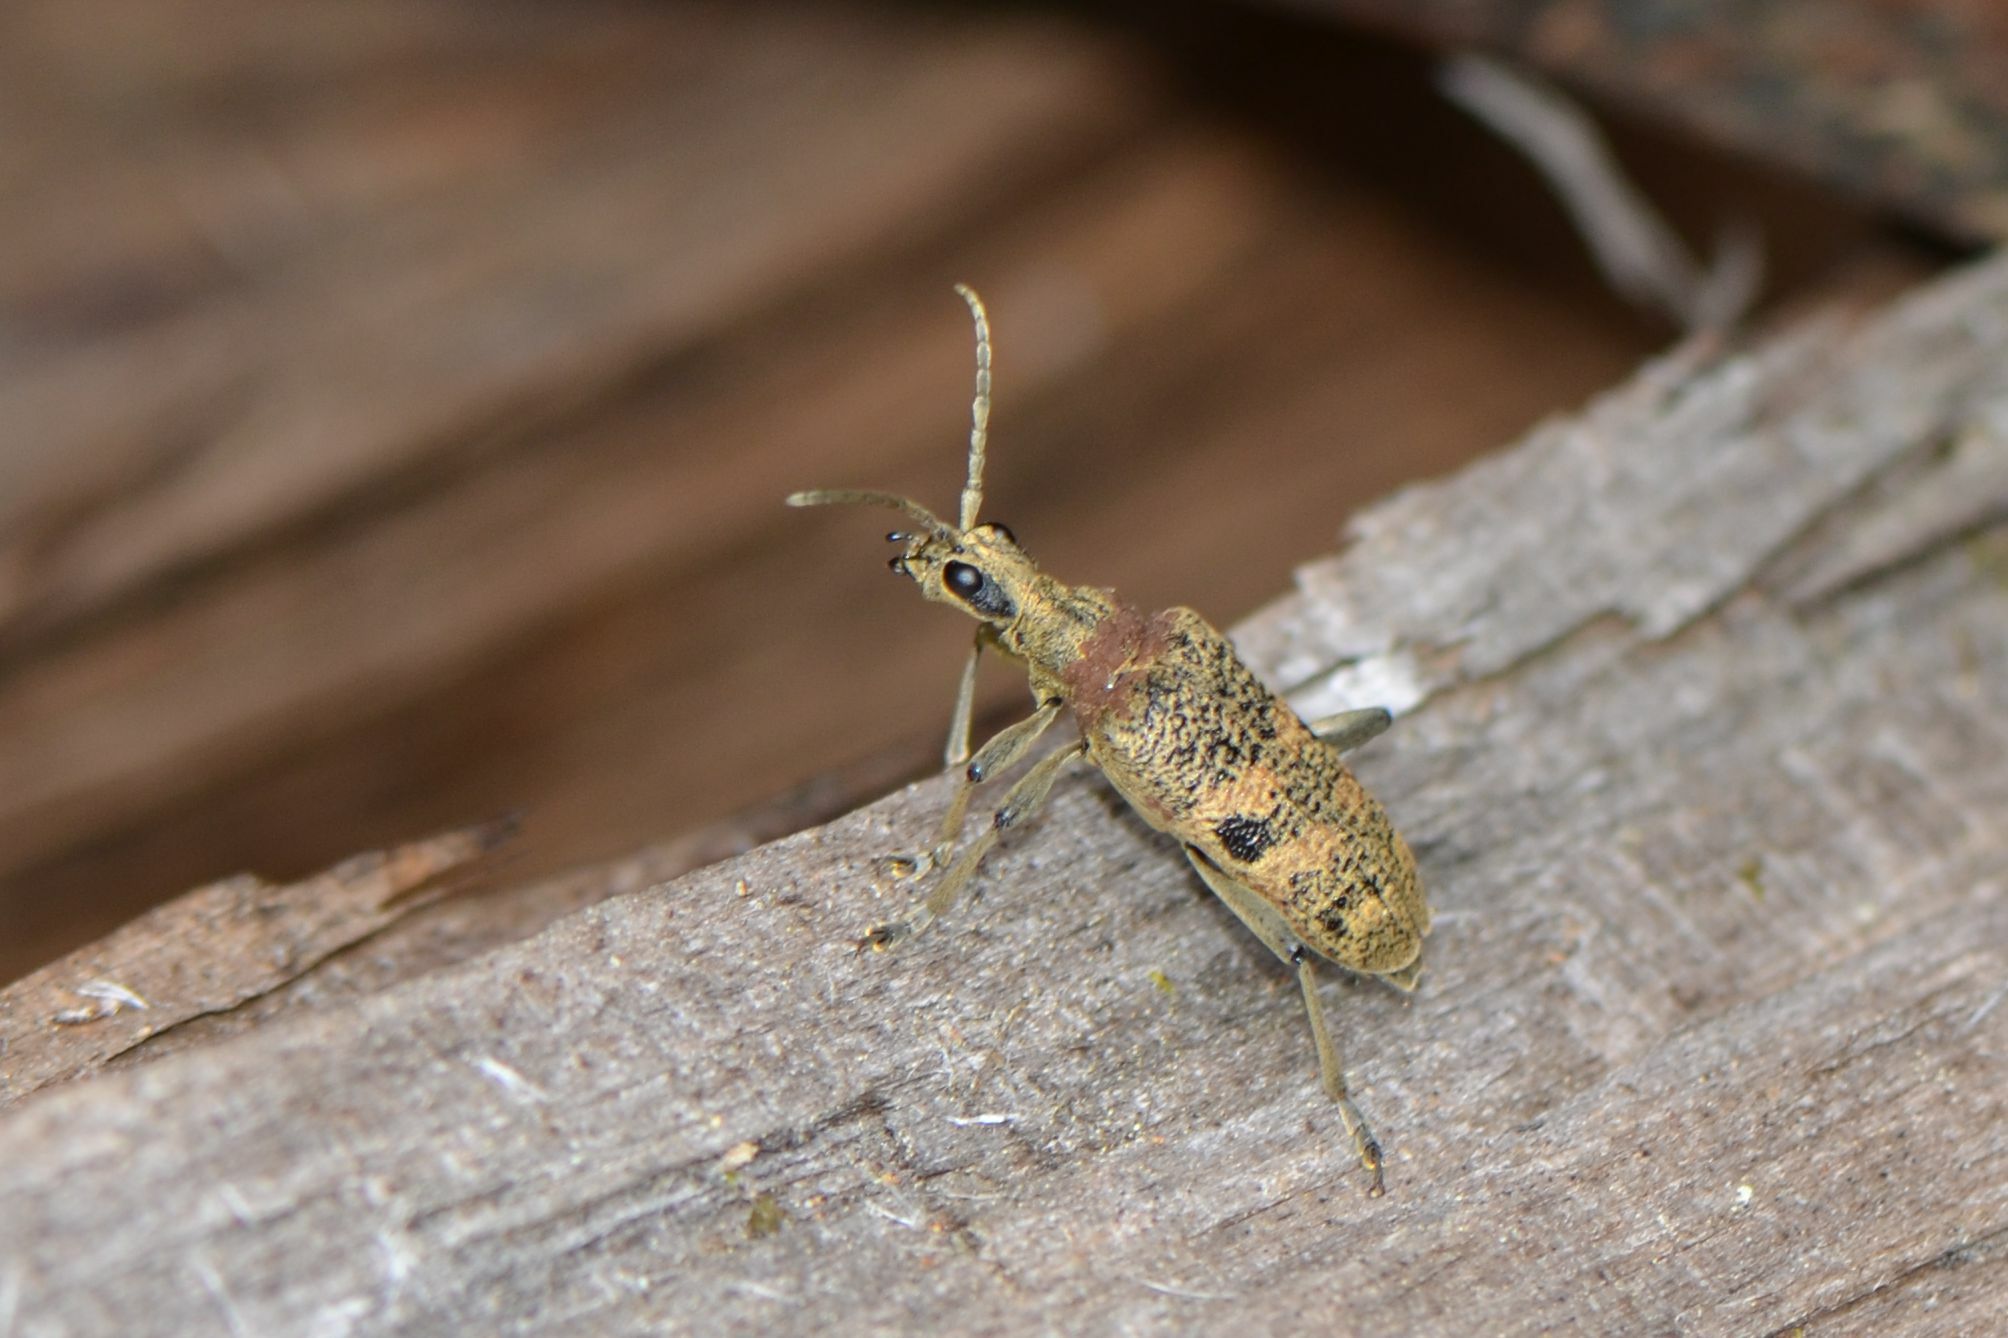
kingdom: Animalia
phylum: Arthropoda
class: Insecta
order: Coleoptera
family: Cerambycidae
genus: Rhagium
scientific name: Rhagium mordax
